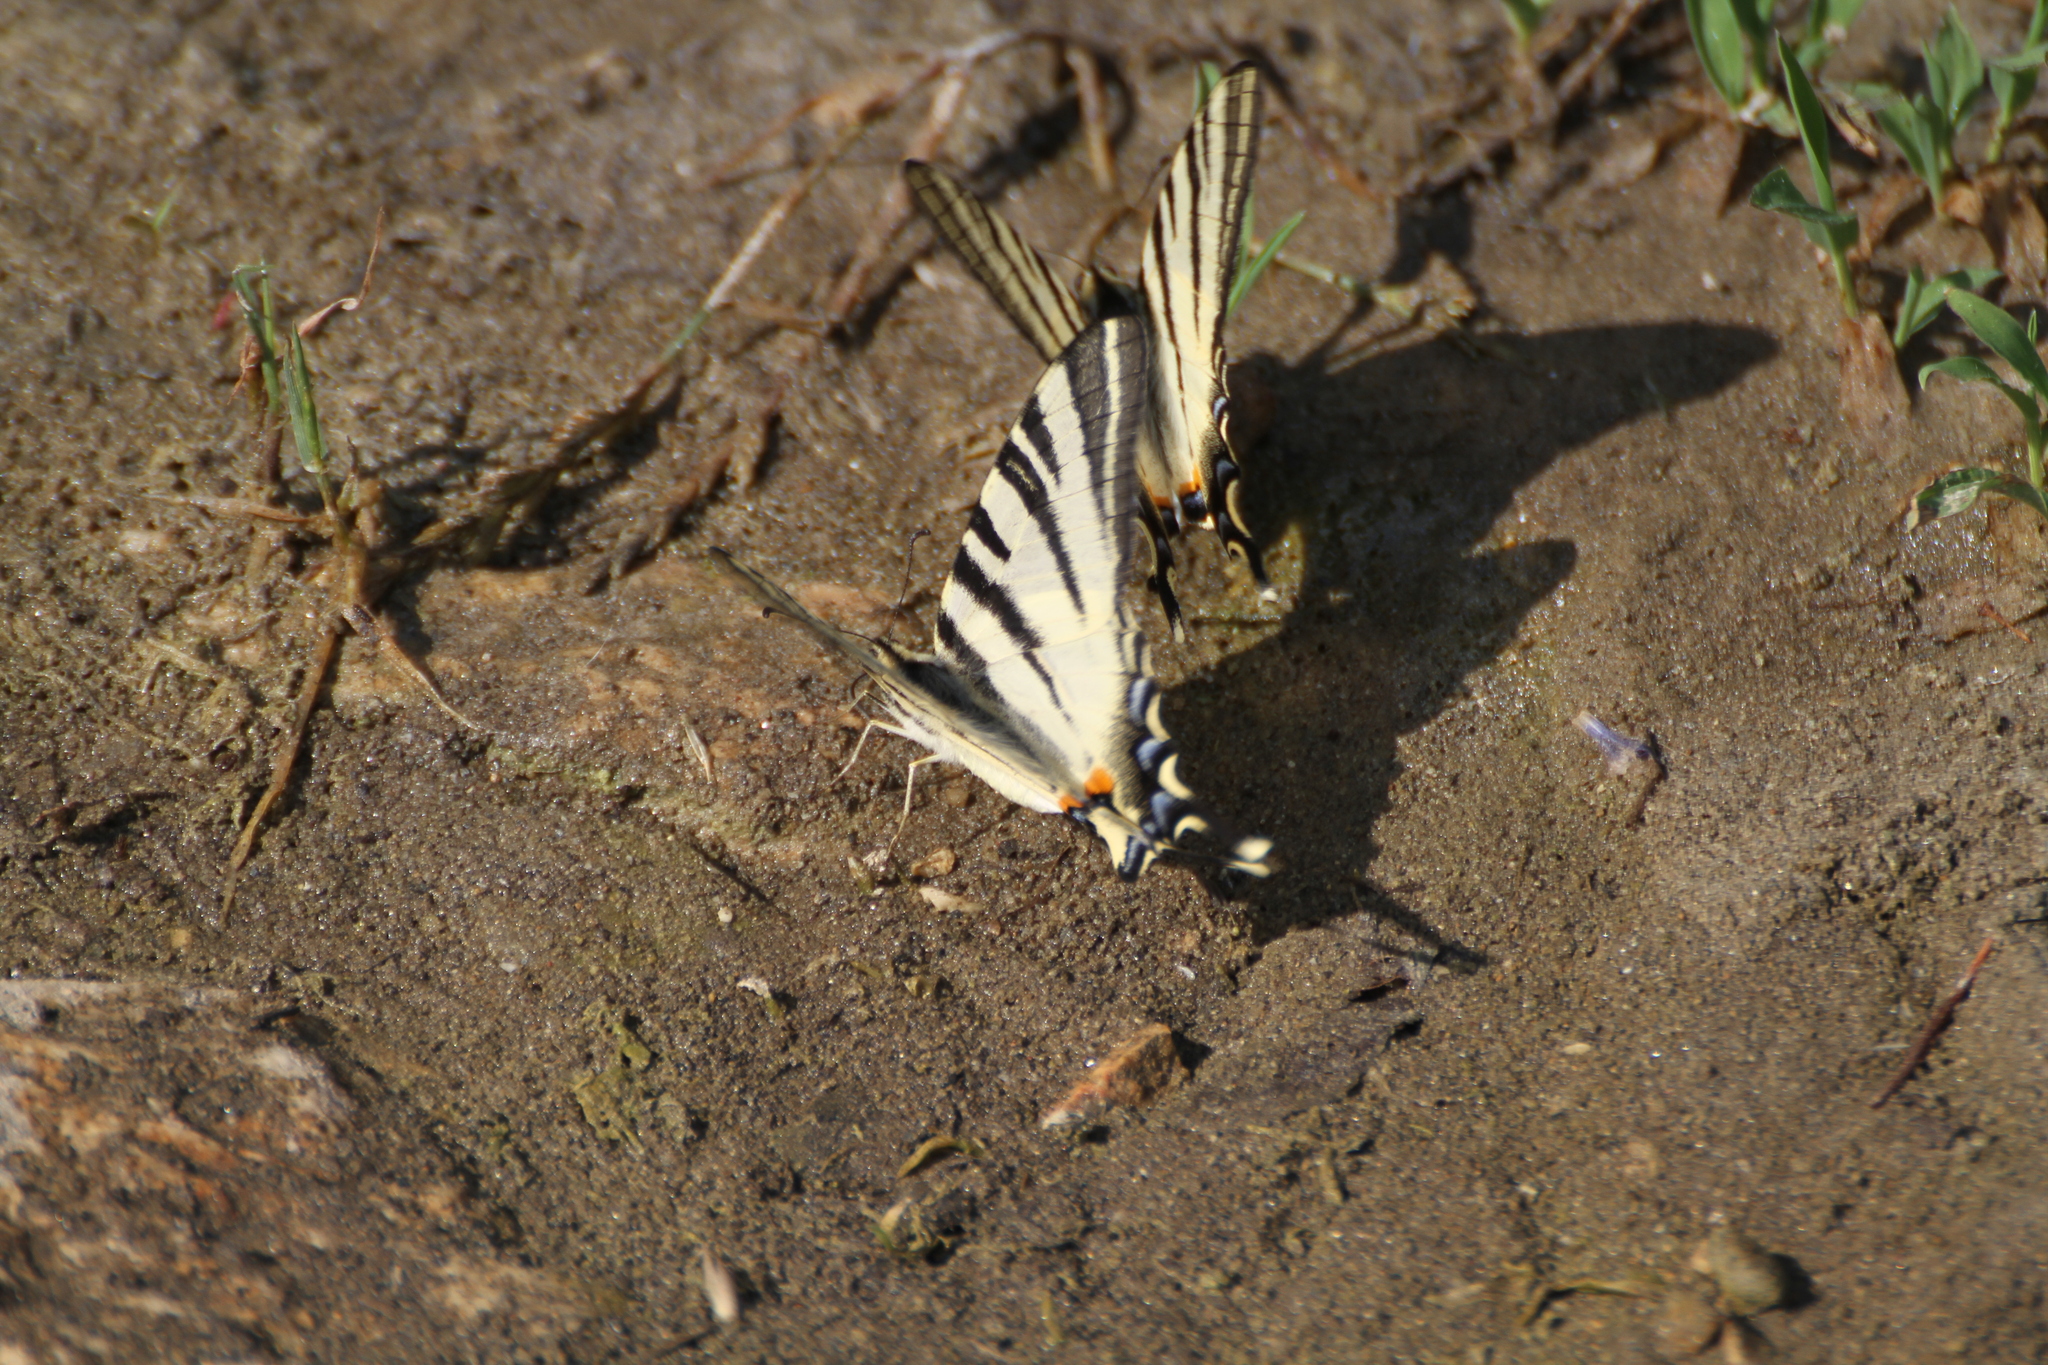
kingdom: Animalia
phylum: Arthropoda
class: Insecta
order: Lepidoptera
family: Papilionidae
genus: Iphiclides
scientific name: Iphiclides podalirius
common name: Scarce swallowtail
